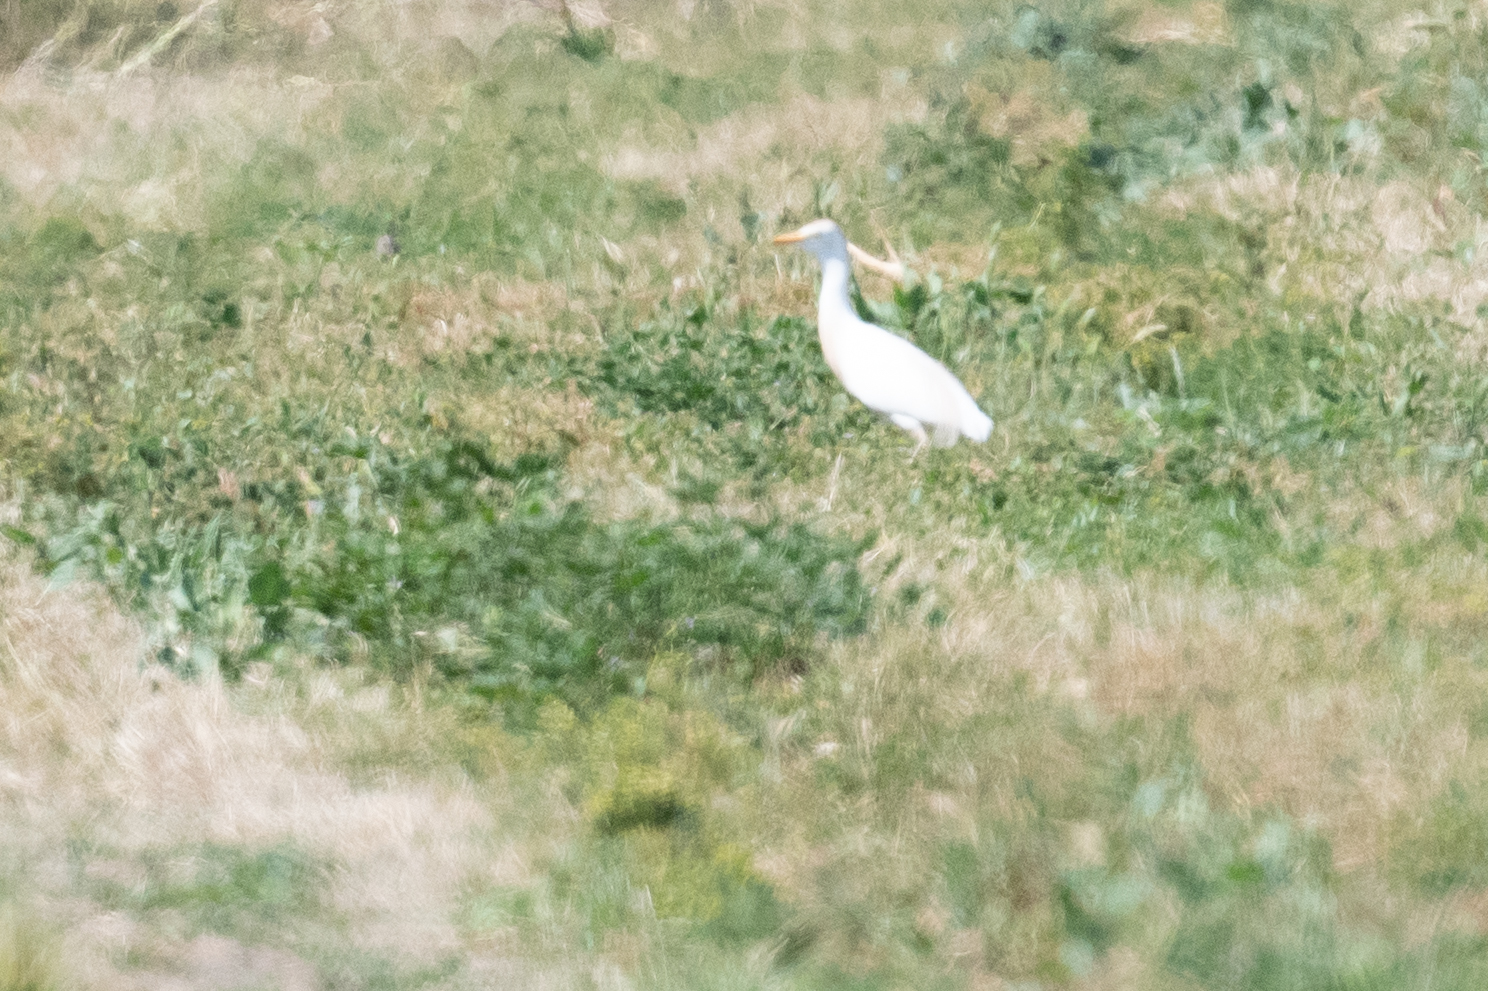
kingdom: Animalia
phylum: Chordata
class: Aves
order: Pelecaniformes
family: Ardeidae
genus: Bubulcus
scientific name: Bubulcus ibis
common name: Cattle egret
